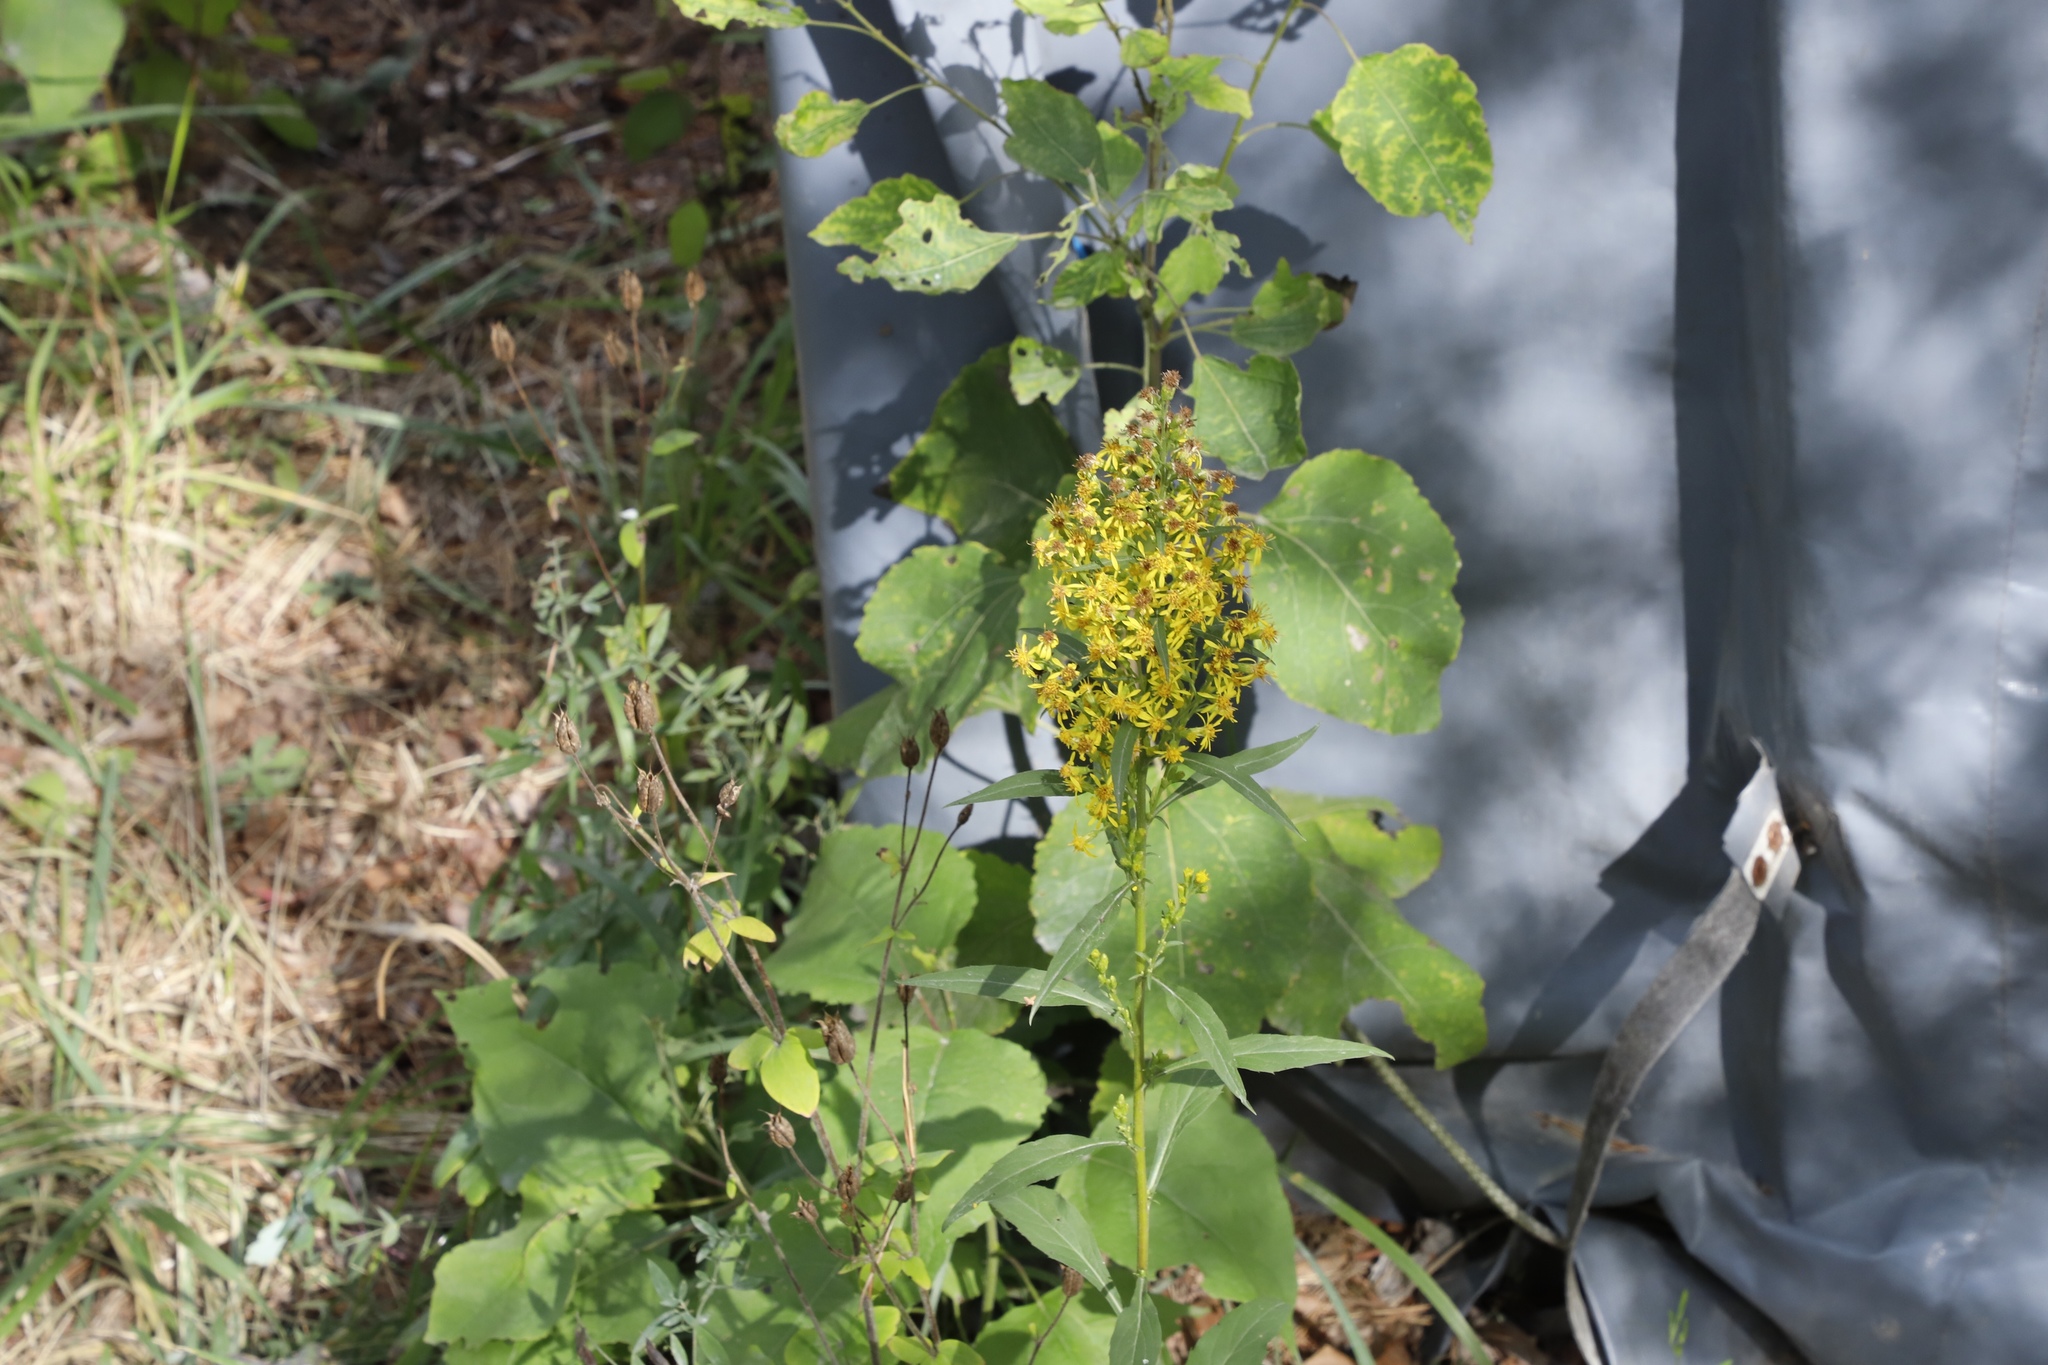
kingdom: Plantae
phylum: Tracheophyta
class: Magnoliopsida
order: Asterales
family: Asteraceae
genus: Solidago
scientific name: Solidago virgaurea
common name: Goldenrod
